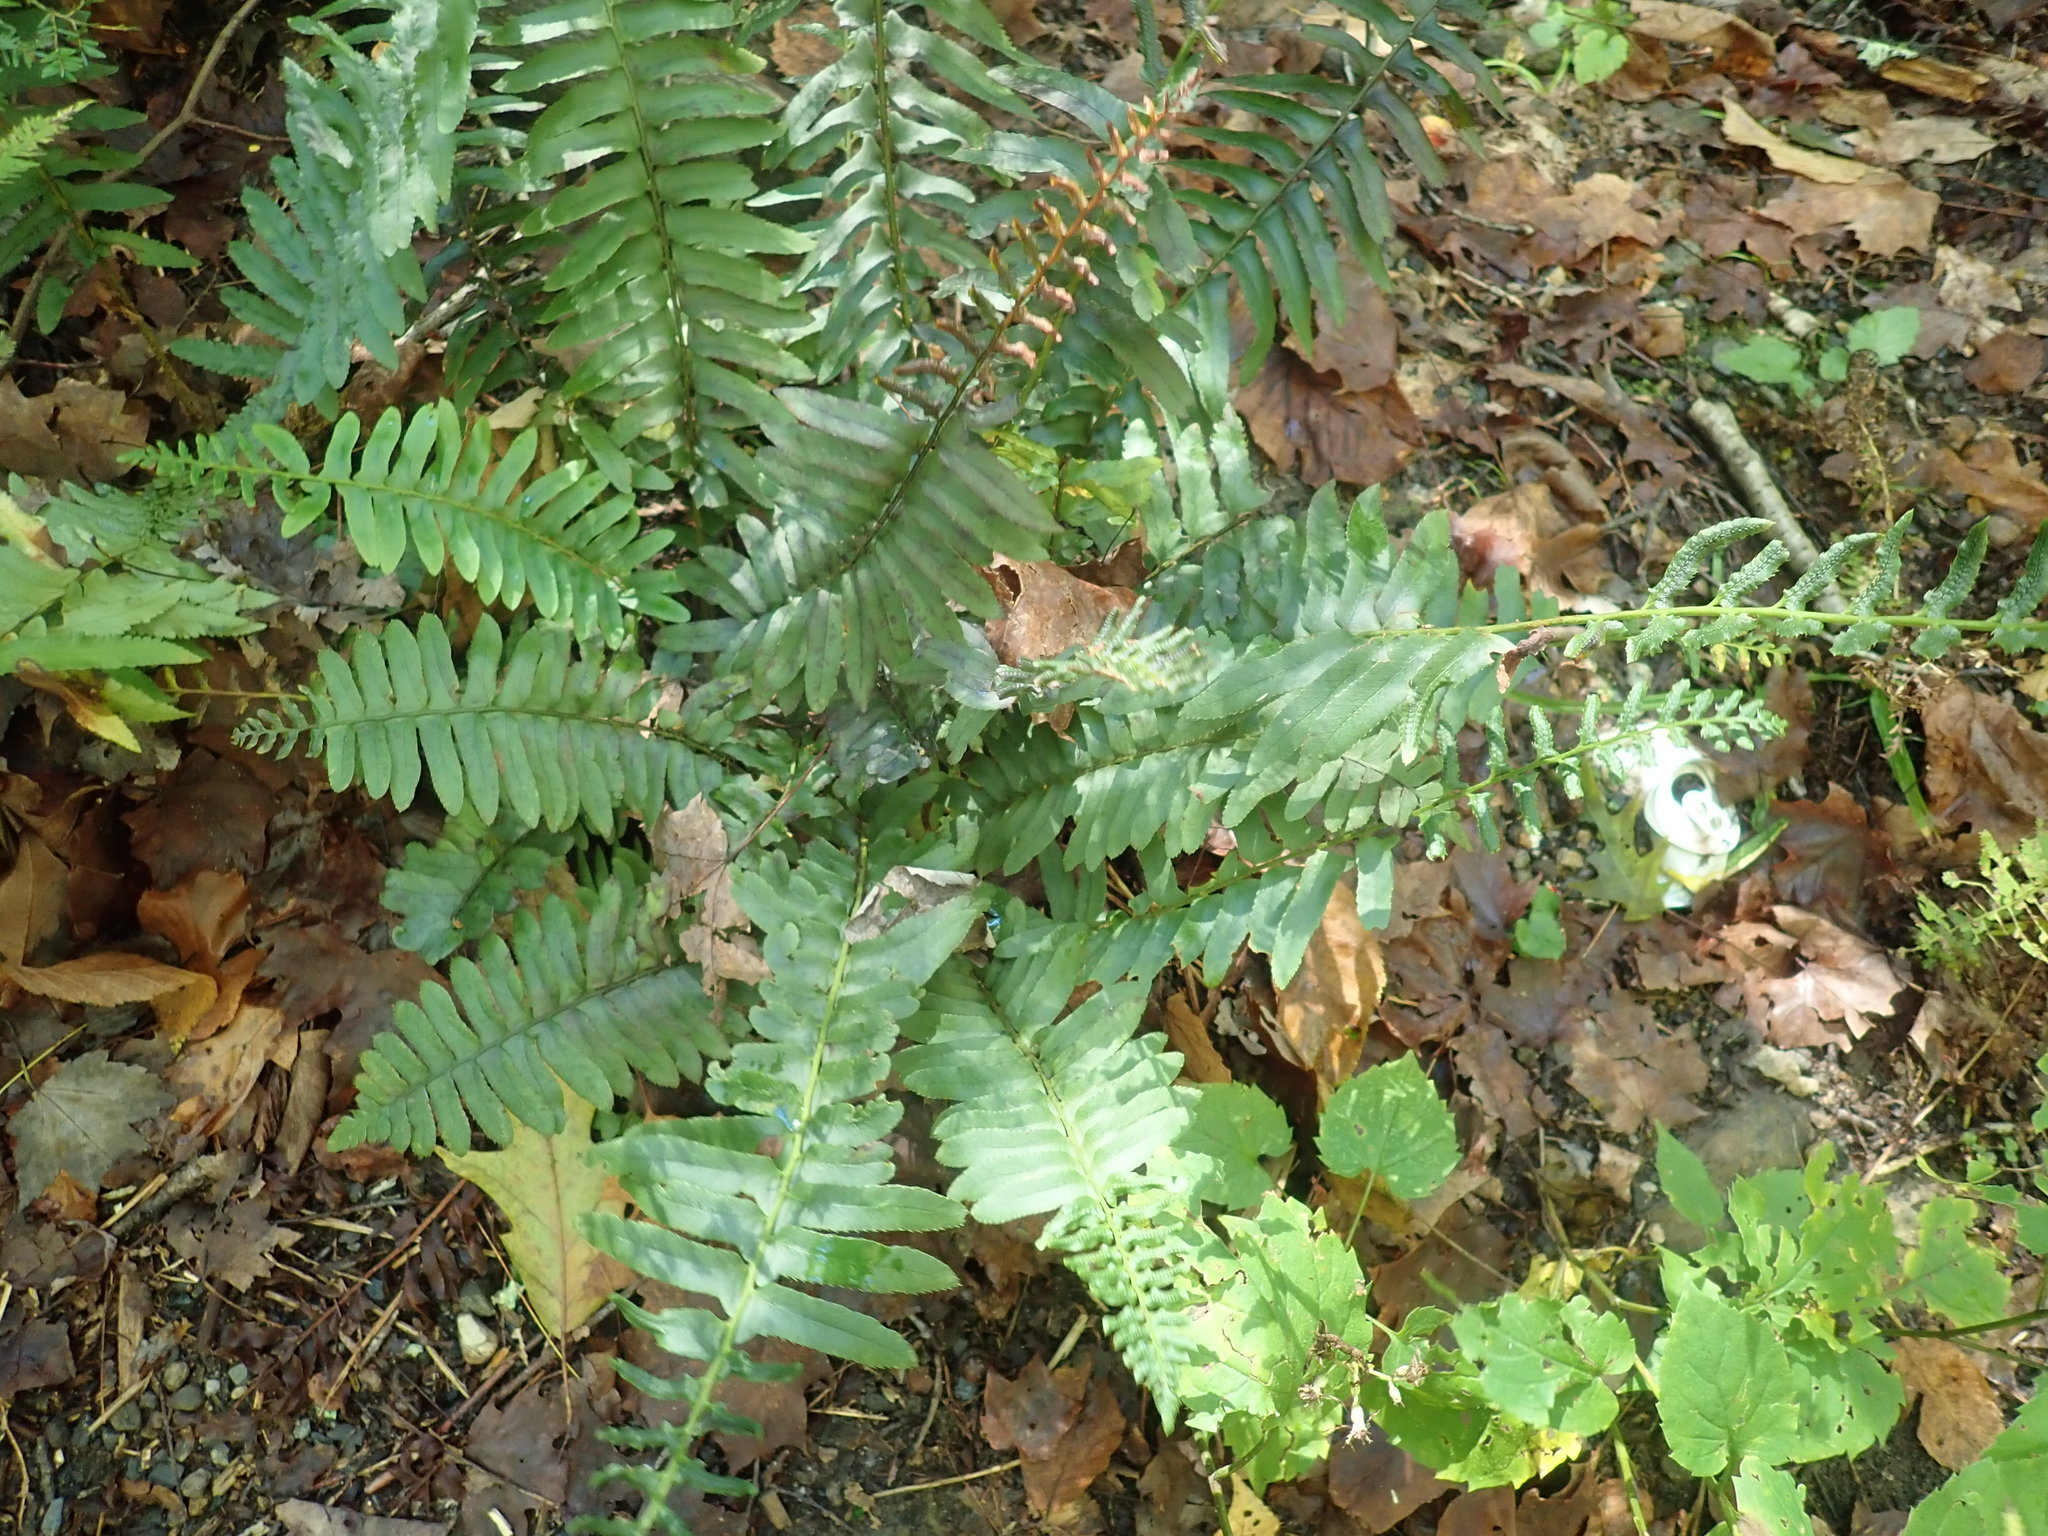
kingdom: Plantae
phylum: Tracheophyta
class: Polypodiopsida
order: Polypodiales
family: Dryopteridaceae
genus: Polystichum
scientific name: Polystichum acrostichoides
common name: Christmas fern
